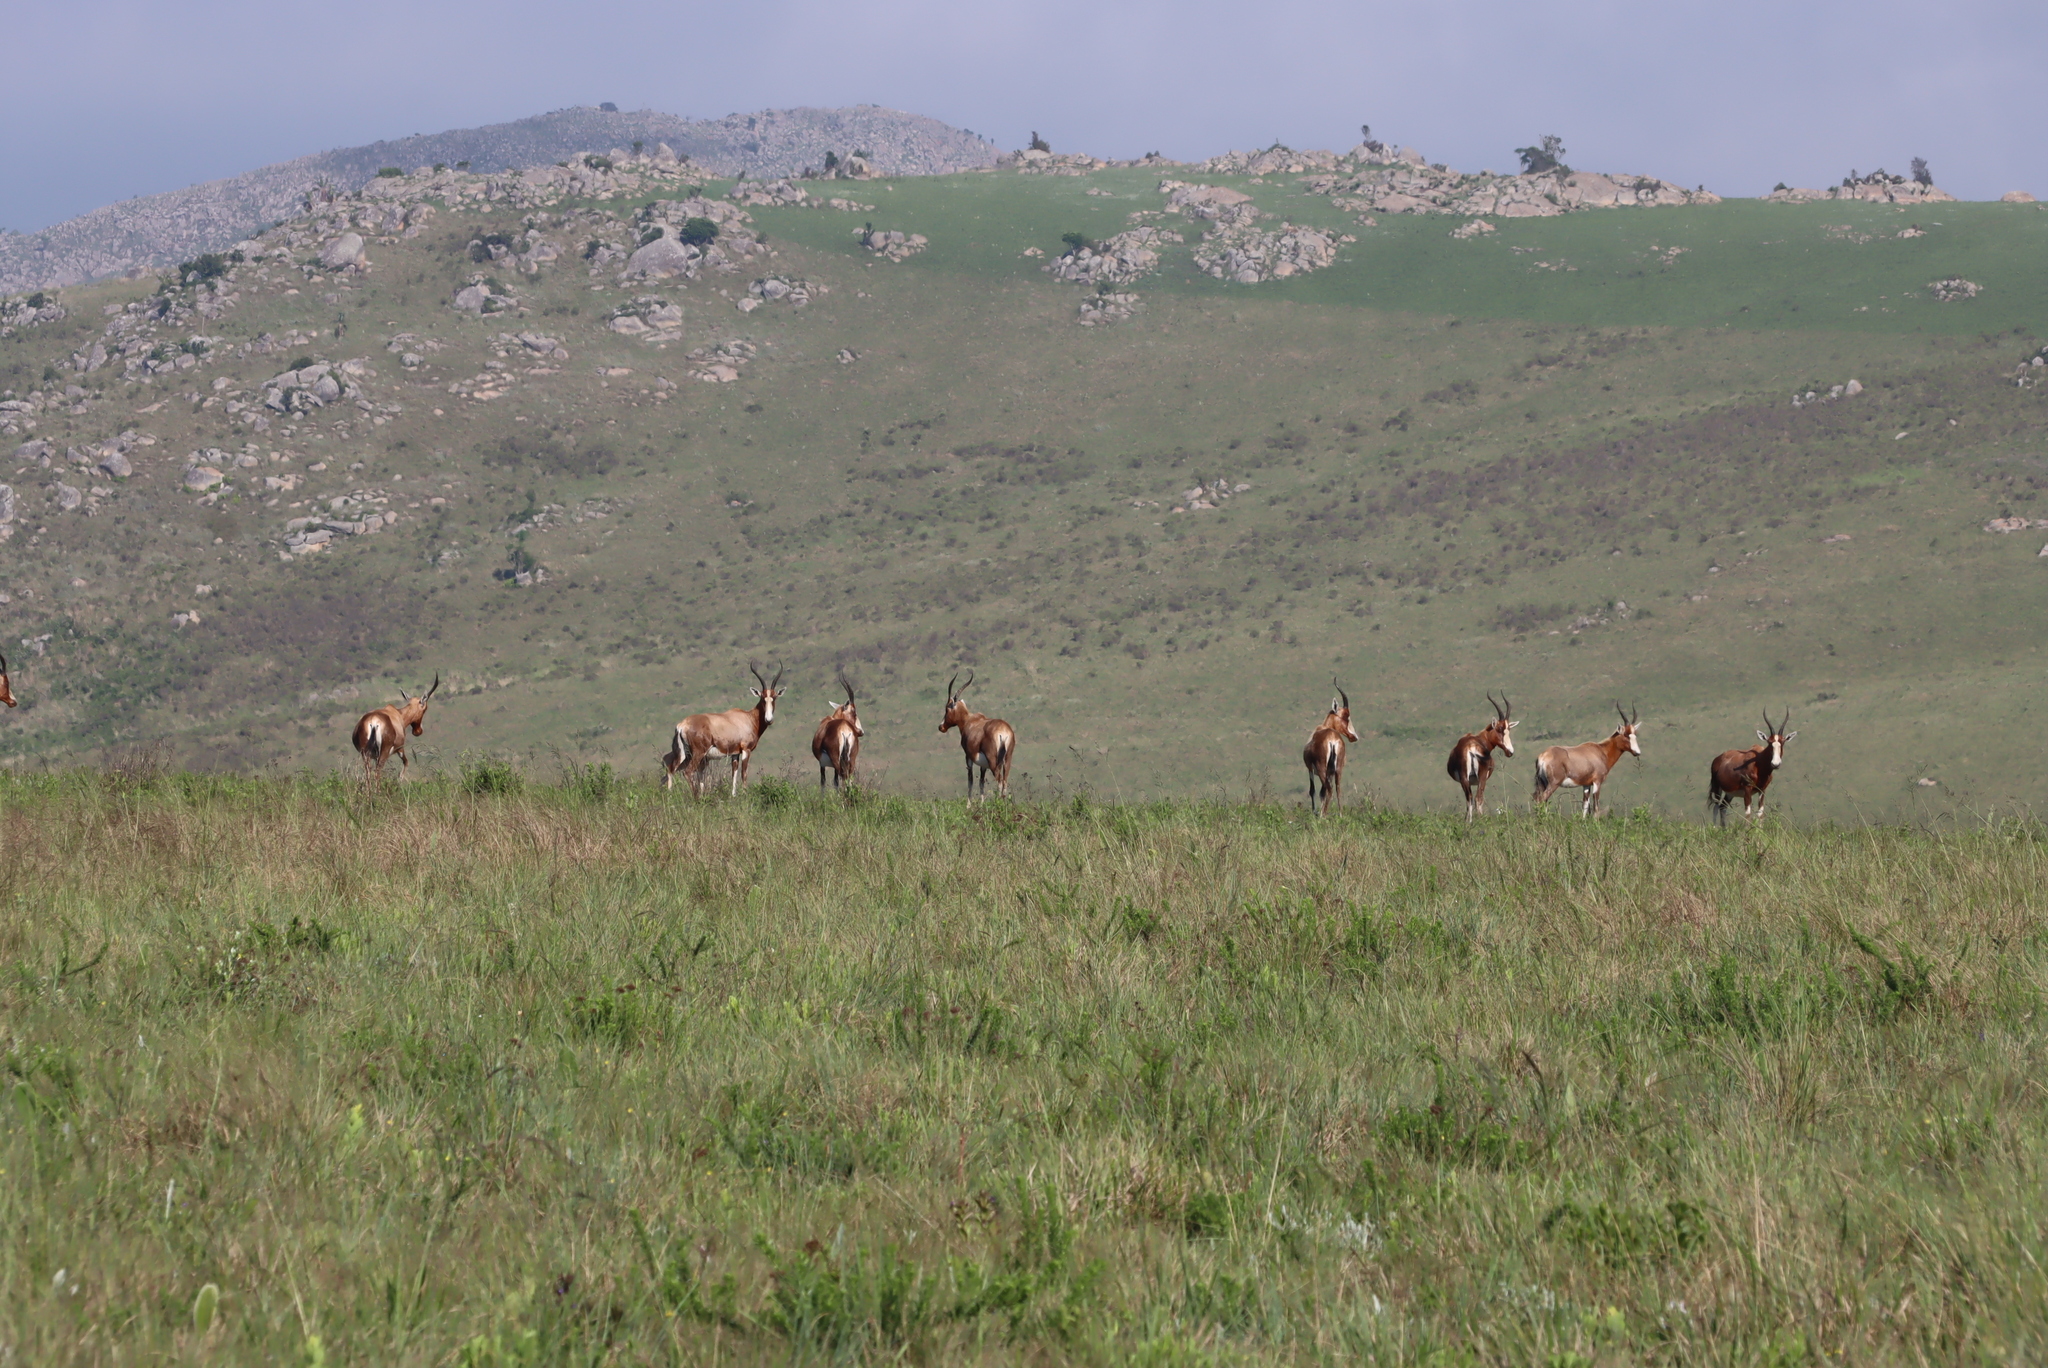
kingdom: Animalia
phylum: Chordata
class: Mammalia
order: Artiodactyla
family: Bovidae
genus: Damaliscus
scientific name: Damaliscus pygargus
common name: Bontebok
